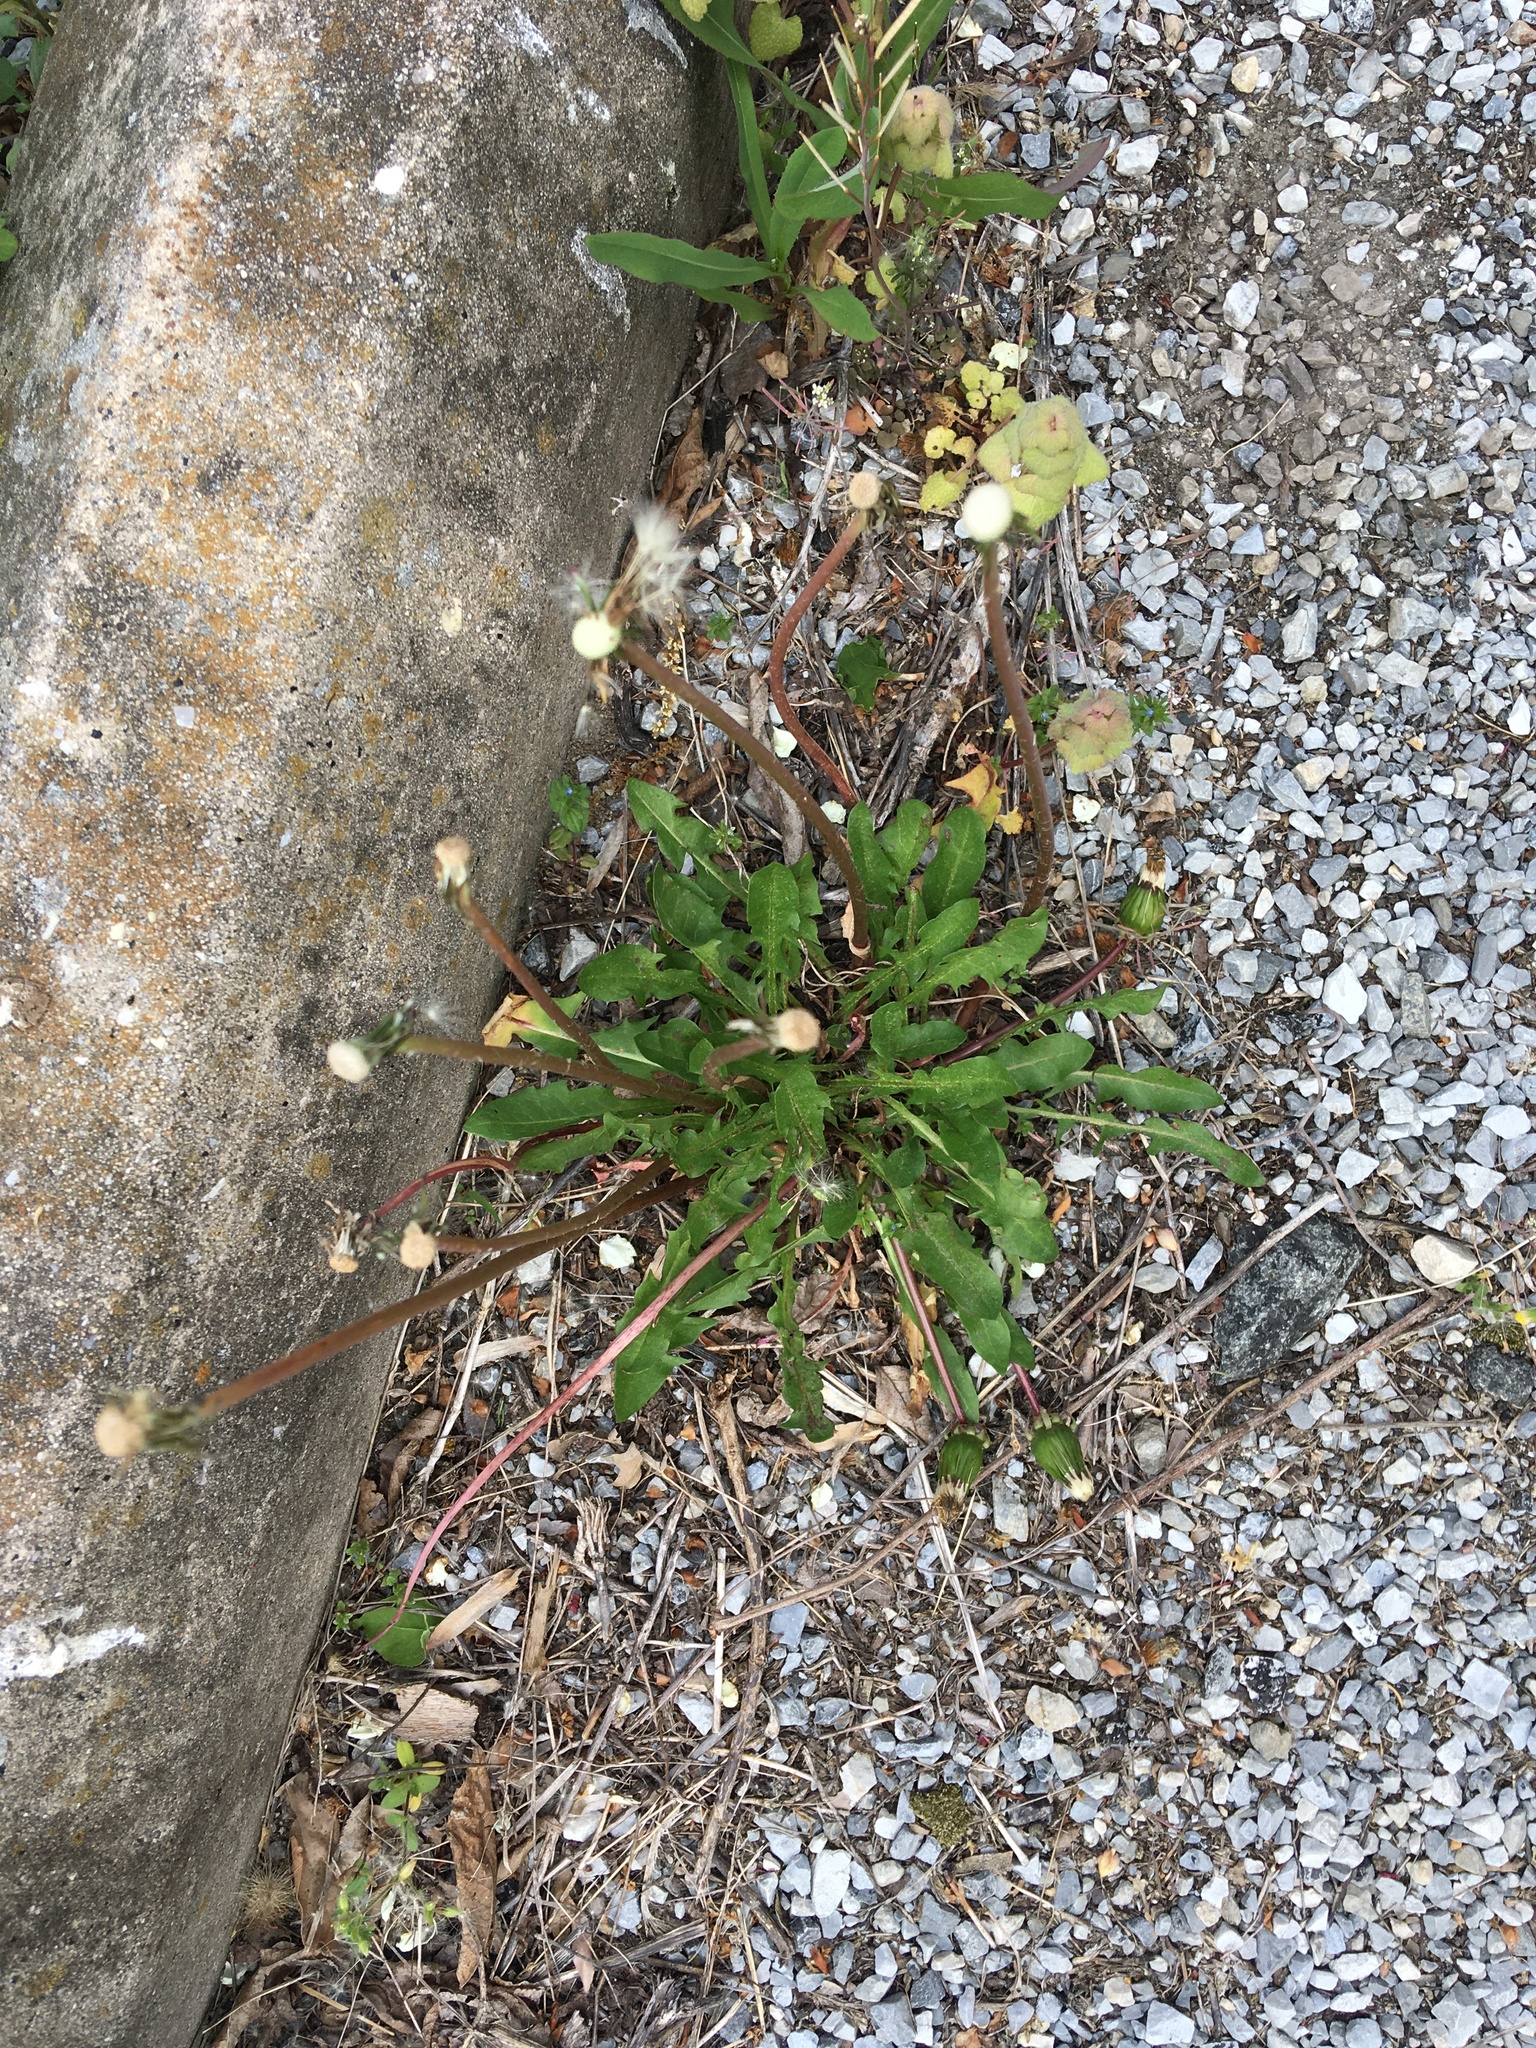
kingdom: Plantae
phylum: Tracheophyta
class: Magnoliopsida
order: Asterales
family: Asteraceae
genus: Taraxacum
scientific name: Taraxacum officinale
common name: Common dandelion
